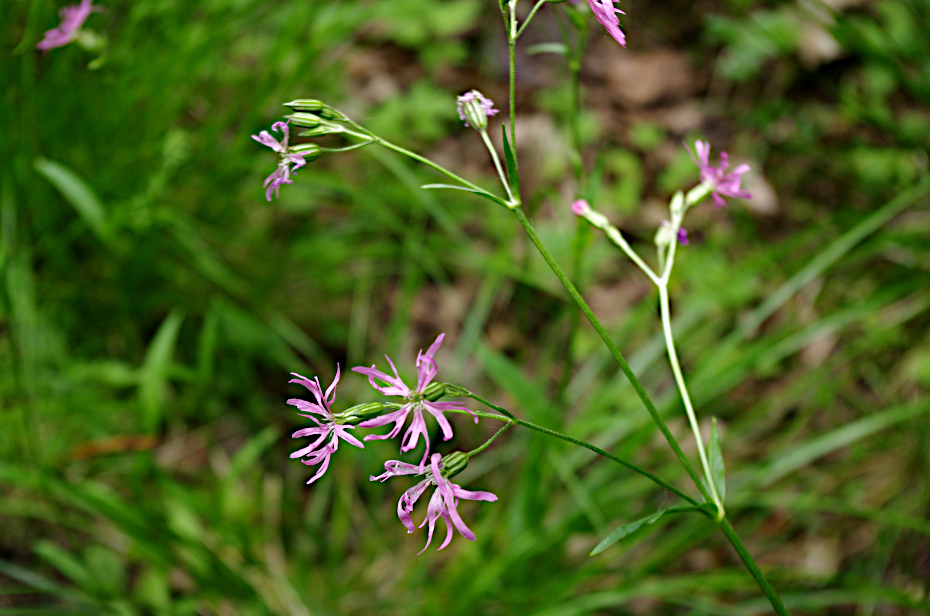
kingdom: Plantae
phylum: Tracheophyta
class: Magnoliopsida
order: Caryophyllales
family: Caryophyllaceae
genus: Silene
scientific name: Silene flos-cuculi
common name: Ragged-robin
